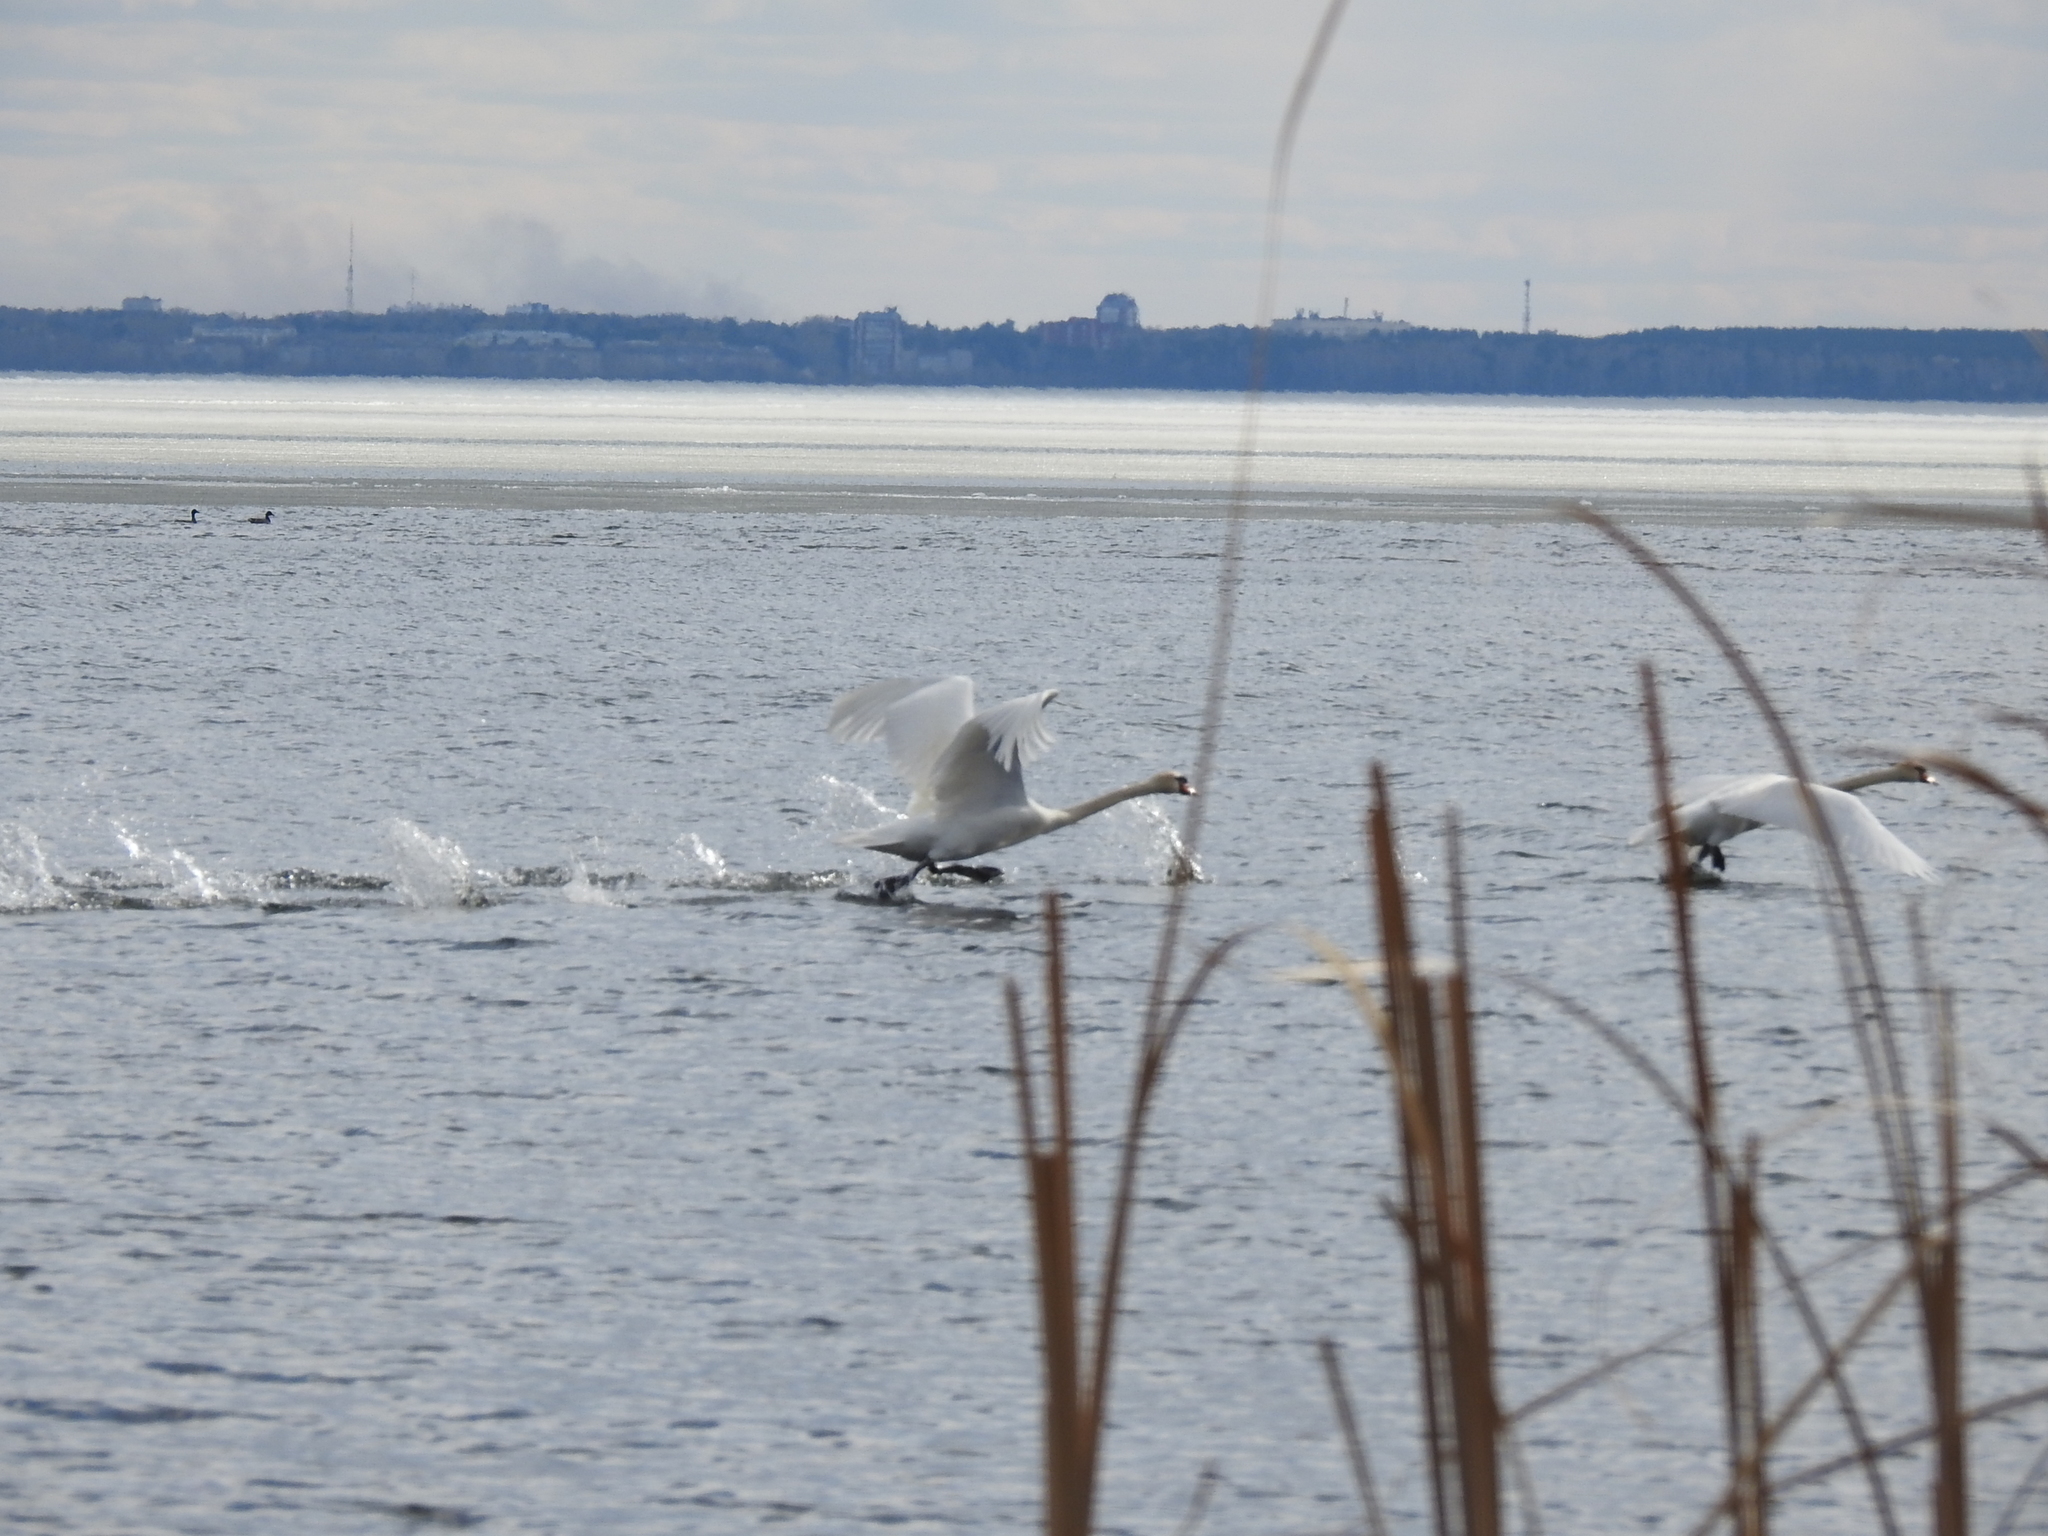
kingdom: Animalia
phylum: Chordata
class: Aves
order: Anseriformes
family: Anatidae
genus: Cygnus
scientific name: Cygnus olor
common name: Mute swan
